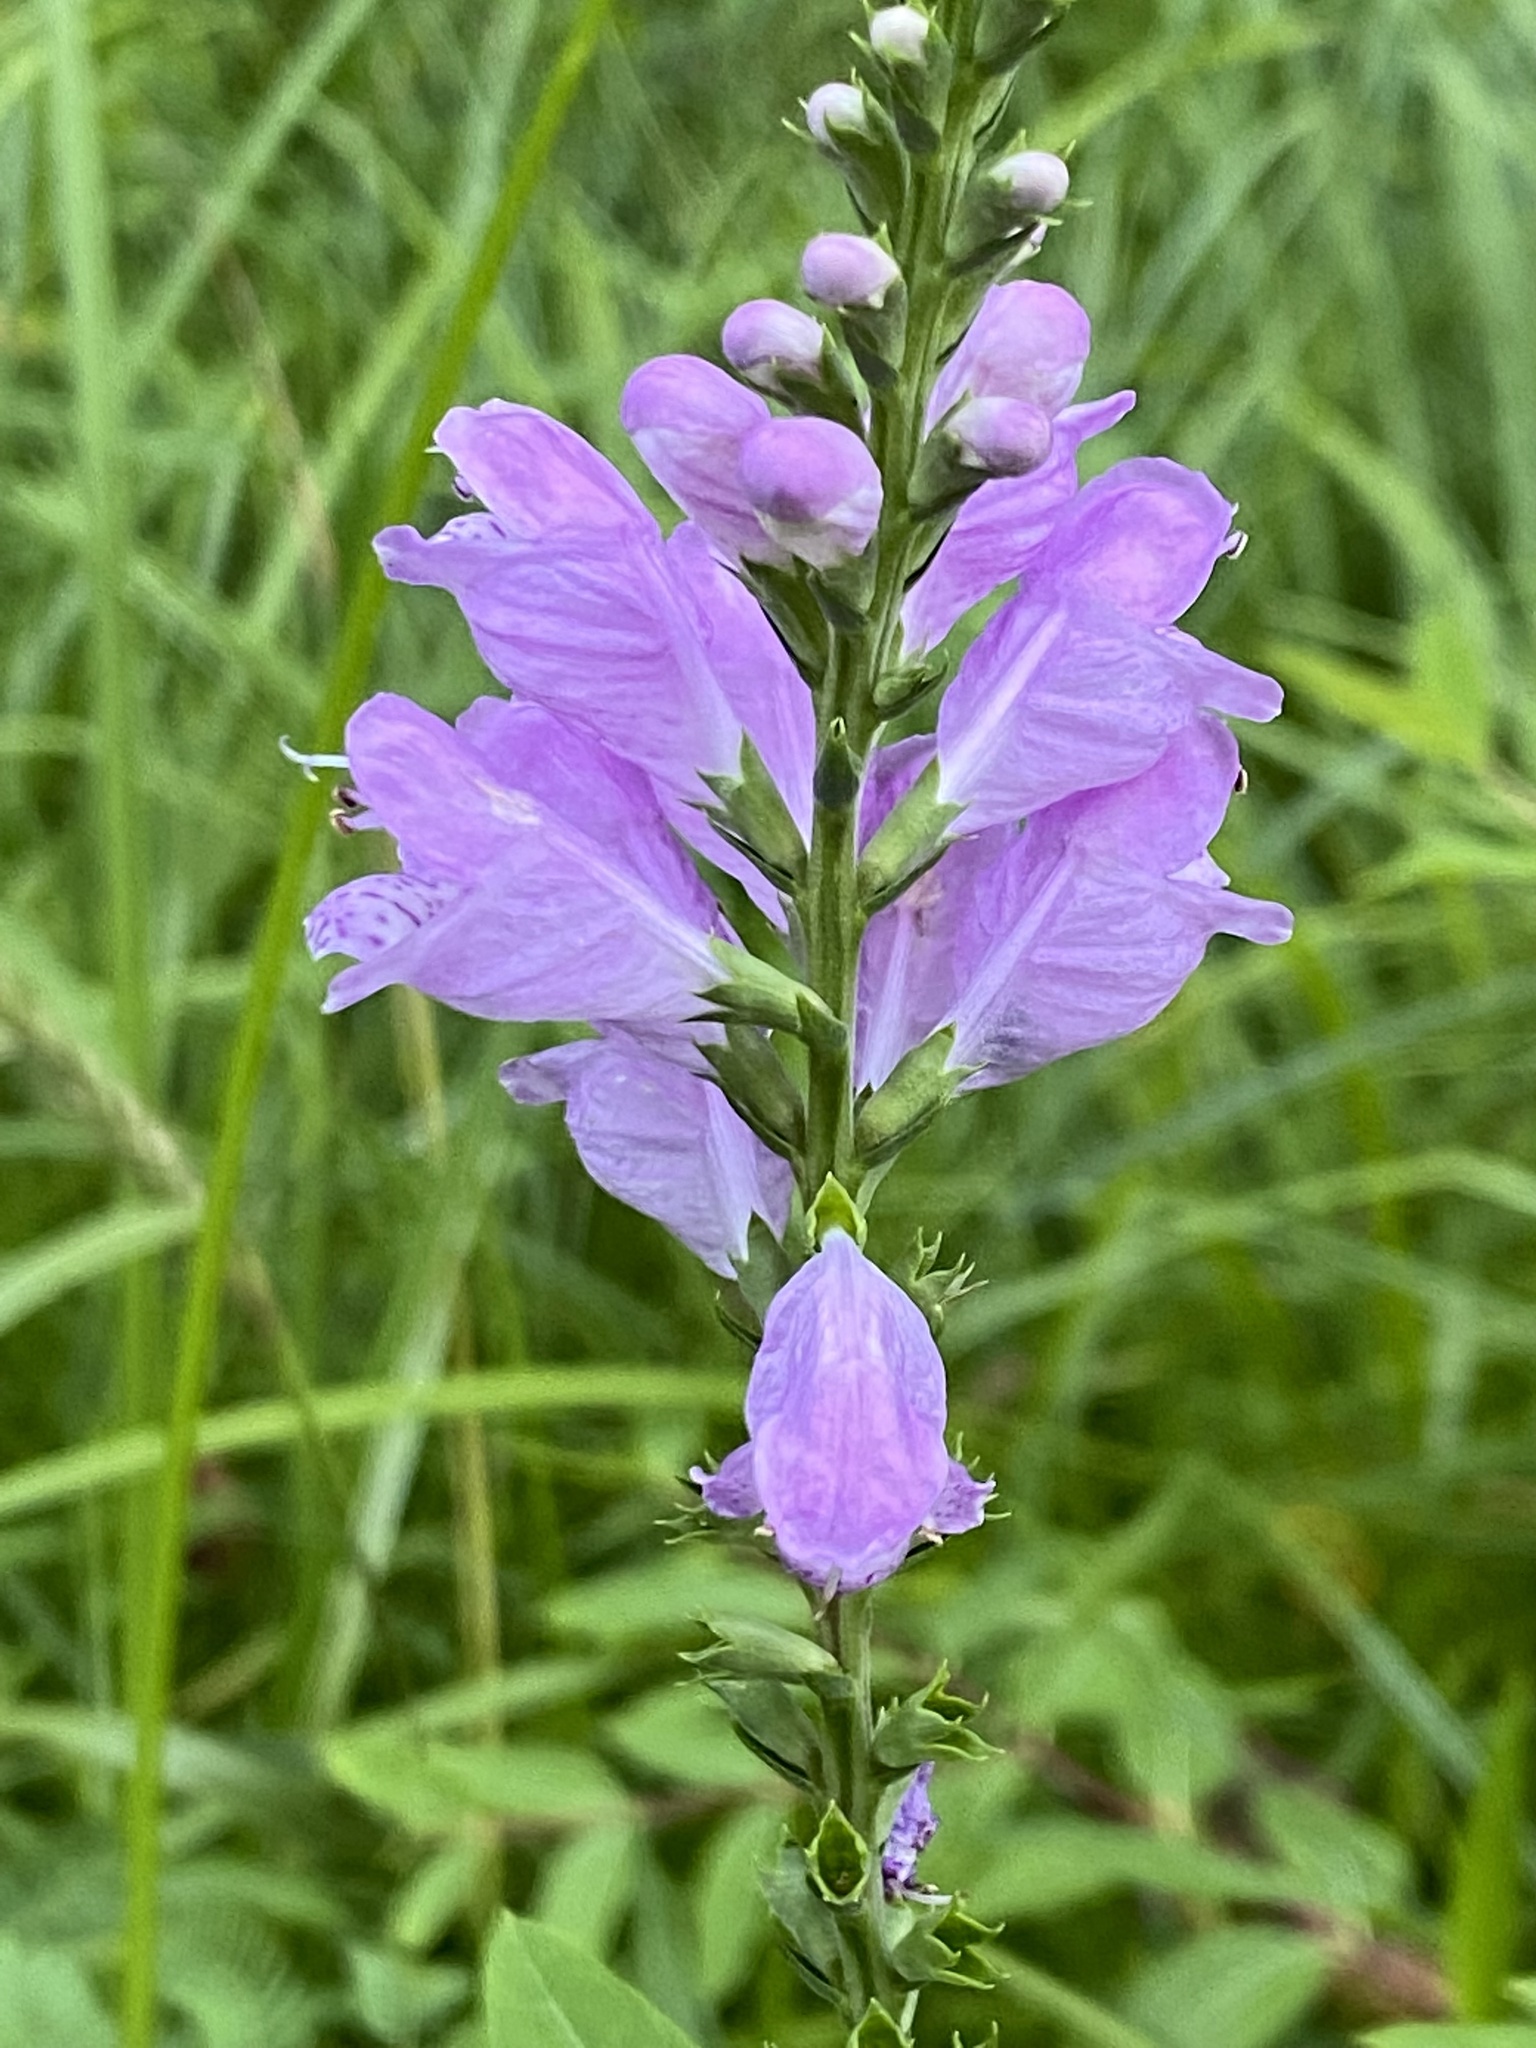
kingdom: Plantae
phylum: Tracheophyta
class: Magnoliopsida
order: Lamiales
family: Lamiaceae
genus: Physostegia
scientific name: Physostegia virginiana
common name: Obedient-plant
